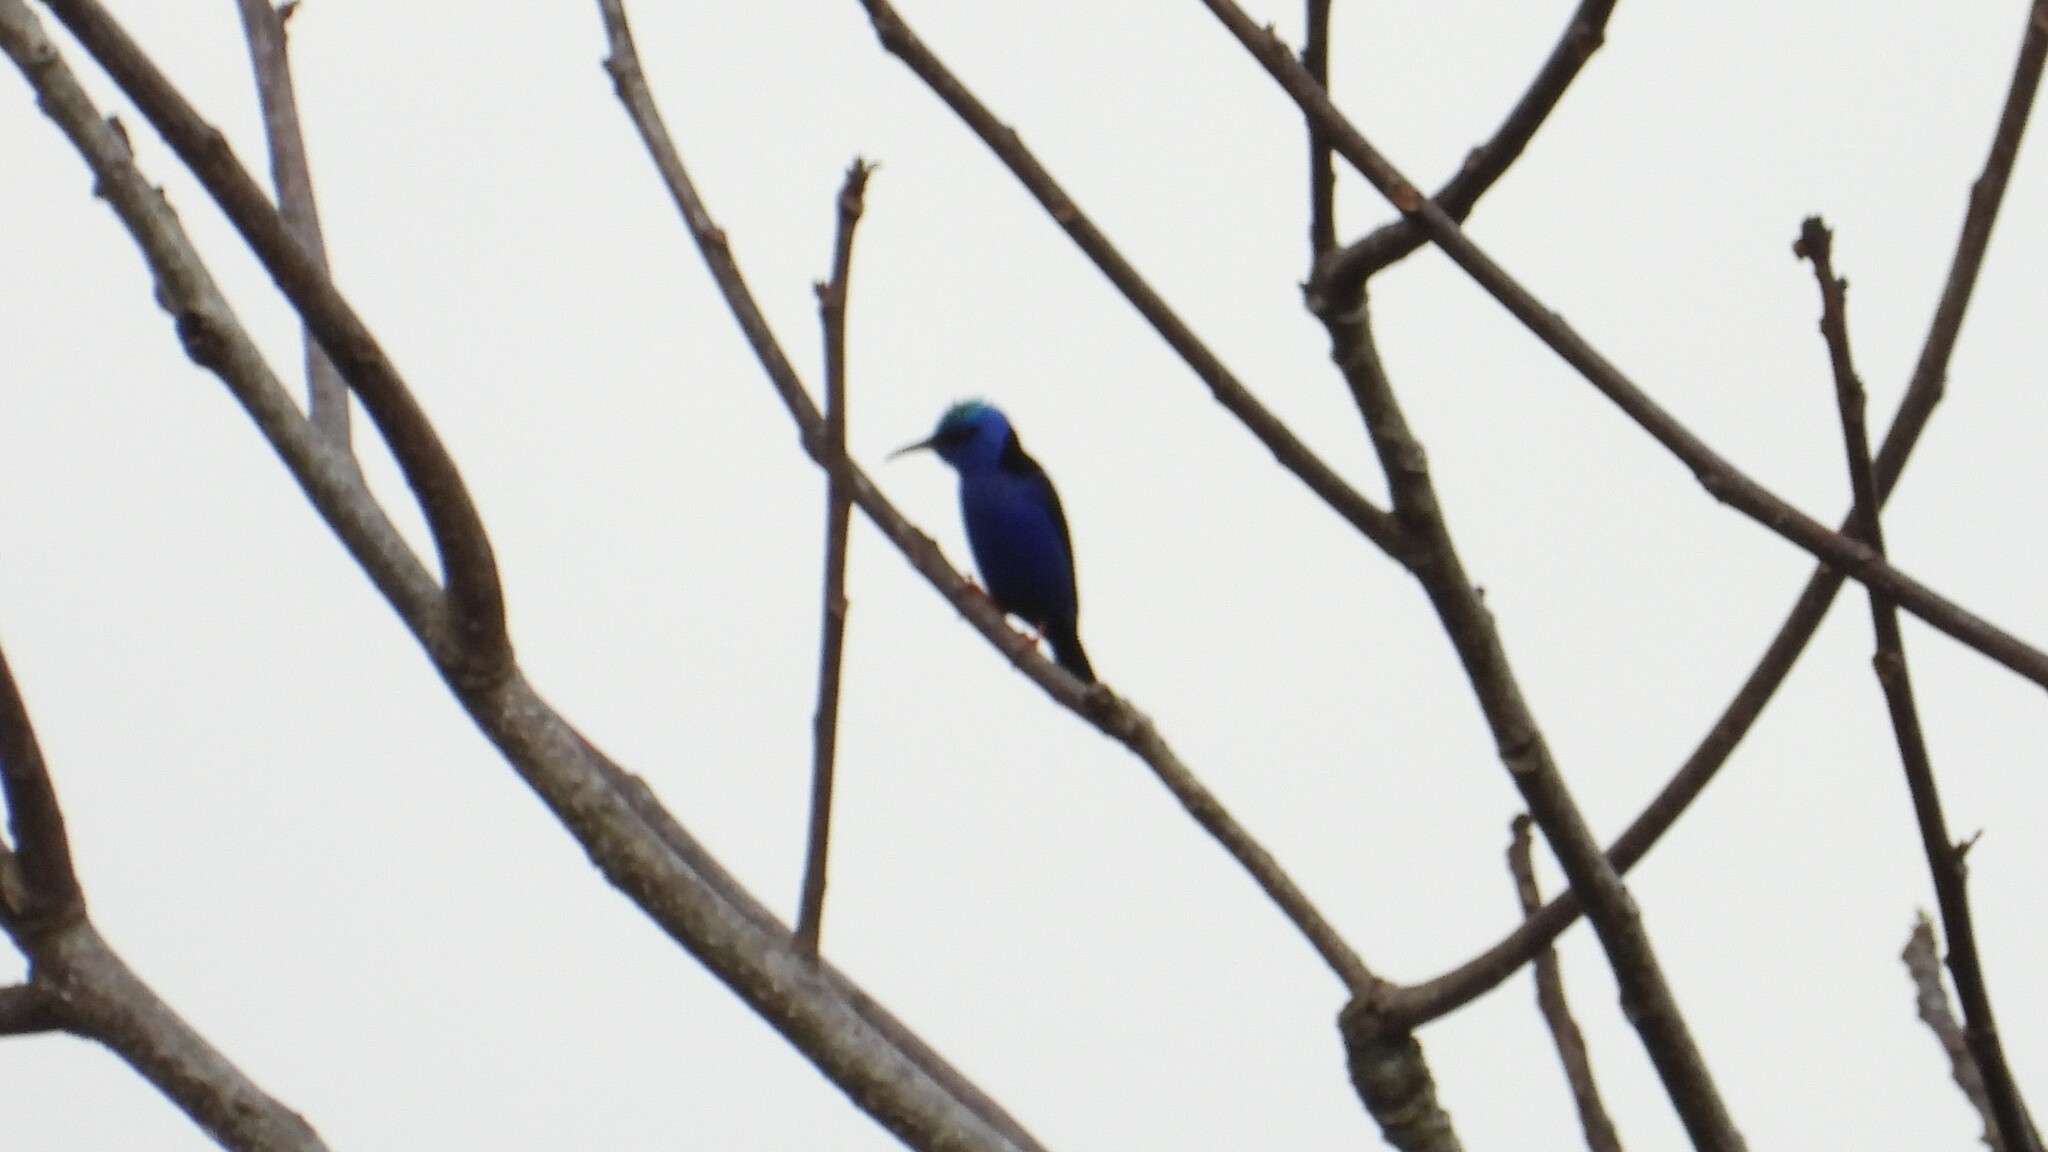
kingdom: Animalia
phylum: Chordata
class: Aves
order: Passeriformes
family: Thraupidae
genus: Cyanerpes
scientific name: Cyanerpes cyaneus
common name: Red-legged honeycreeper
